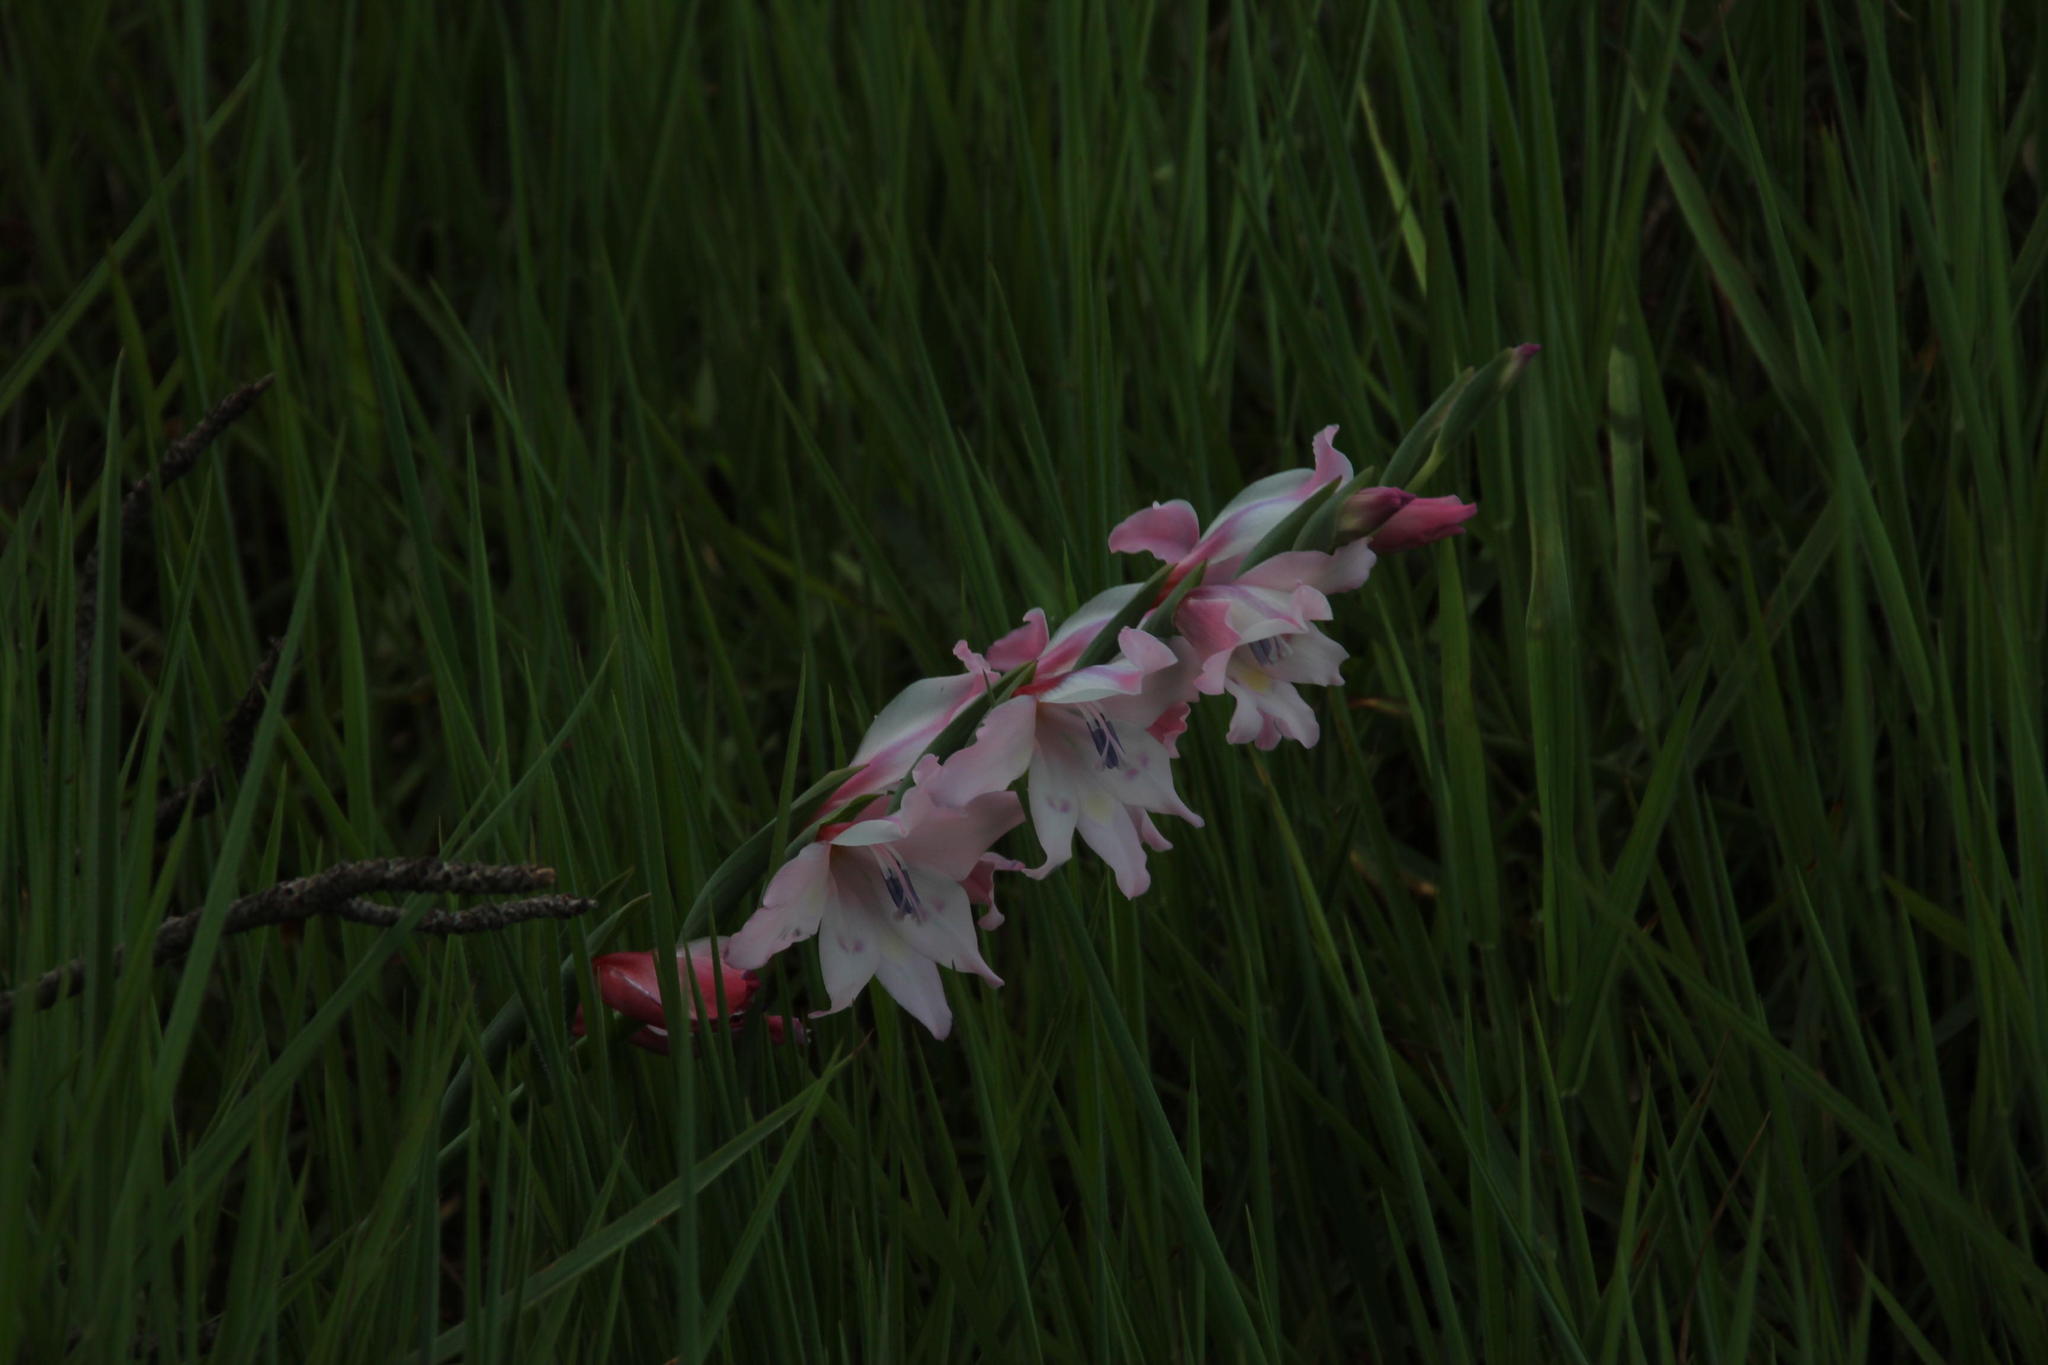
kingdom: Plantae
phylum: Tracheophyta
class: Liliopsida
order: Asparagales
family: Iridaceae
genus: Gladiolus
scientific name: Gladiolus carneus
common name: Painted-lady
